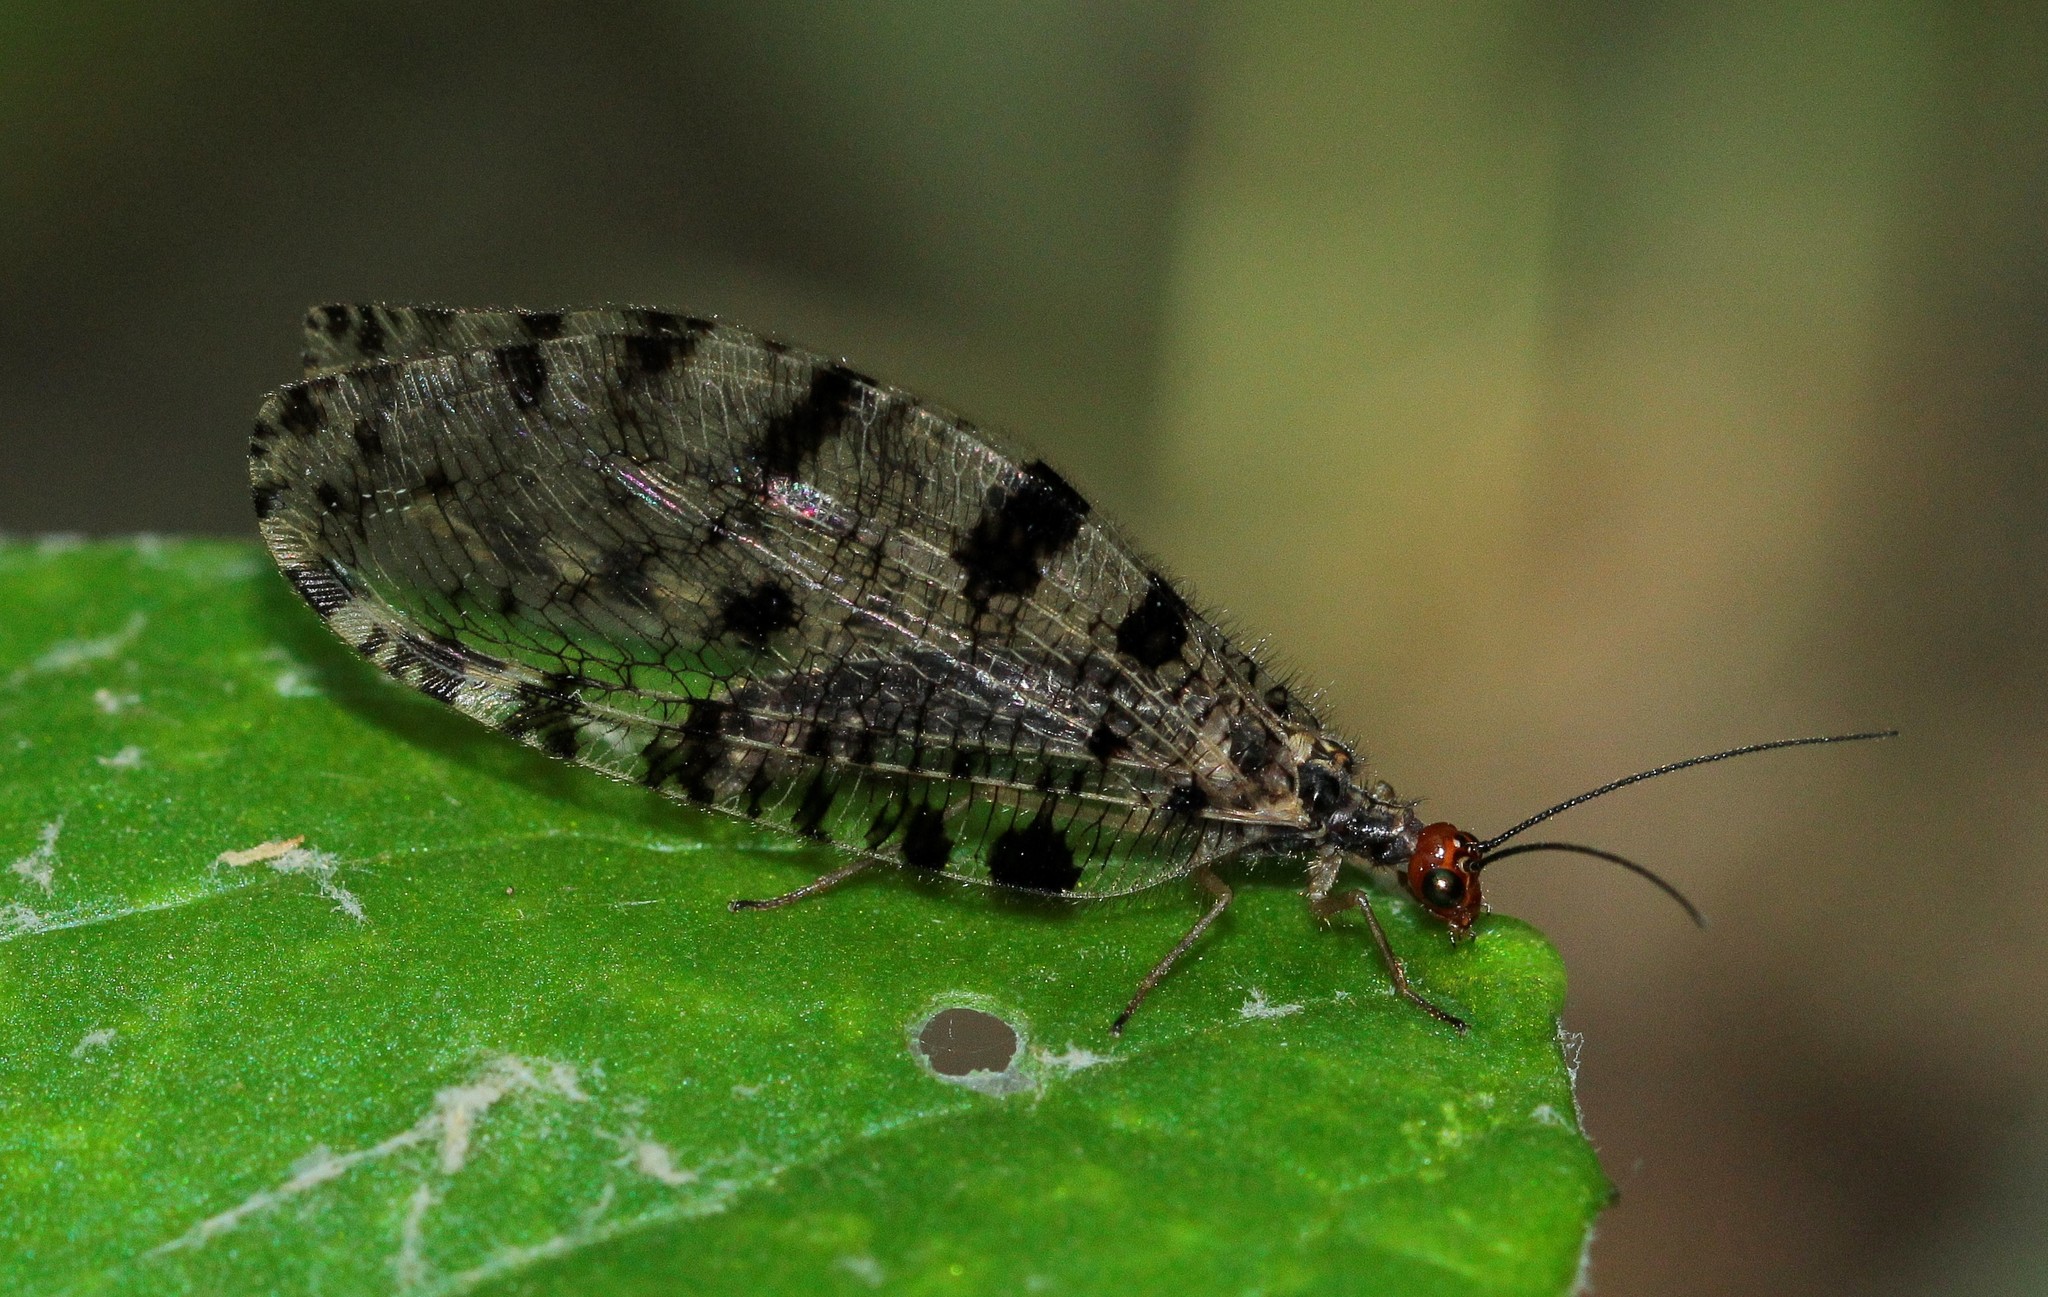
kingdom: Animalia
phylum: Arthropoda
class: Insecta
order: Neuroptera
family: Osmylidae
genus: Osmylus
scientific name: Osmylus fulvicephalus
